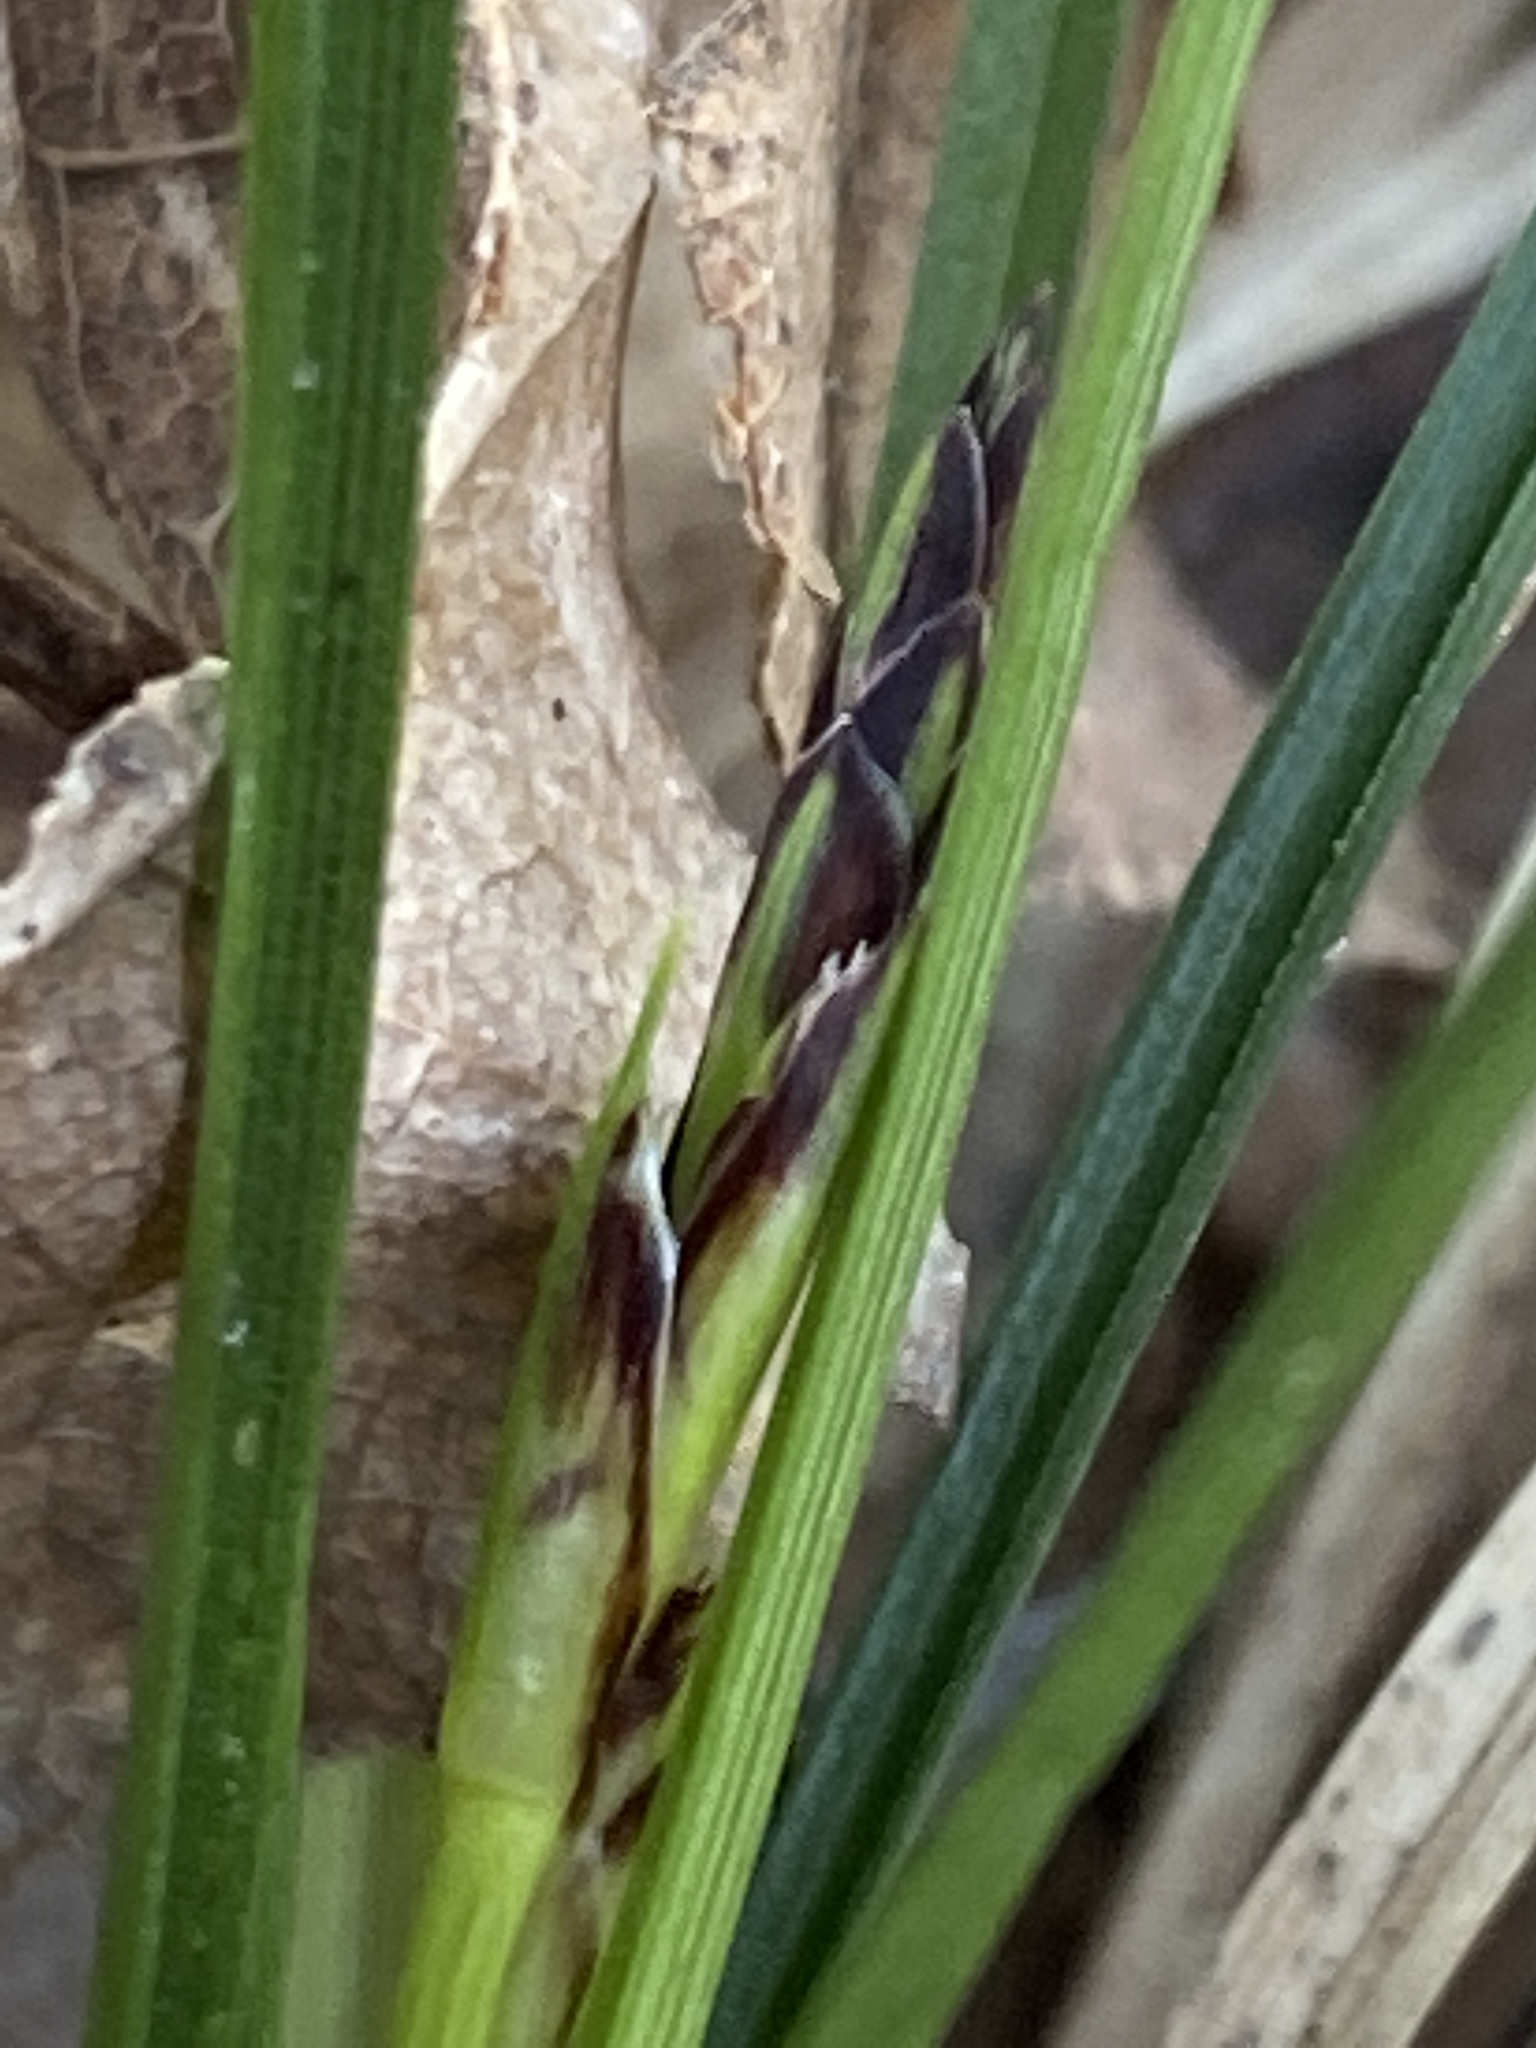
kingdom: Plantae
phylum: Tracheophyta
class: Liliopsida
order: Poales
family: Cyperaceae
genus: Carex
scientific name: Carex nigromarginata
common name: Black-edged sedge
